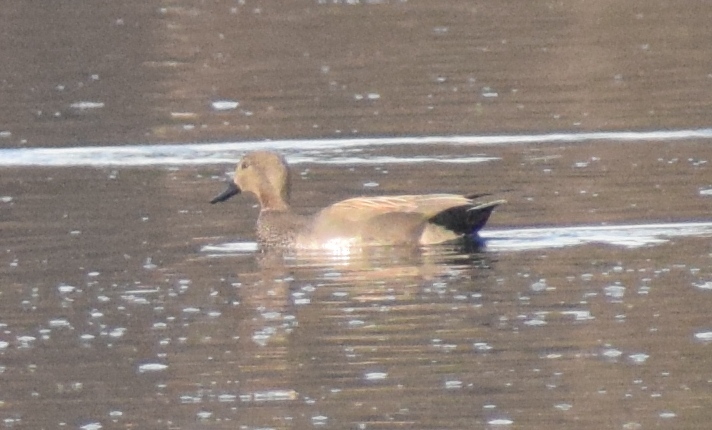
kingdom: Animalia
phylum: Chordata
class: Aves
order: Anseriformes
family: Anatidae
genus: Mareca
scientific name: Mareca strepera
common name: Gadwall
